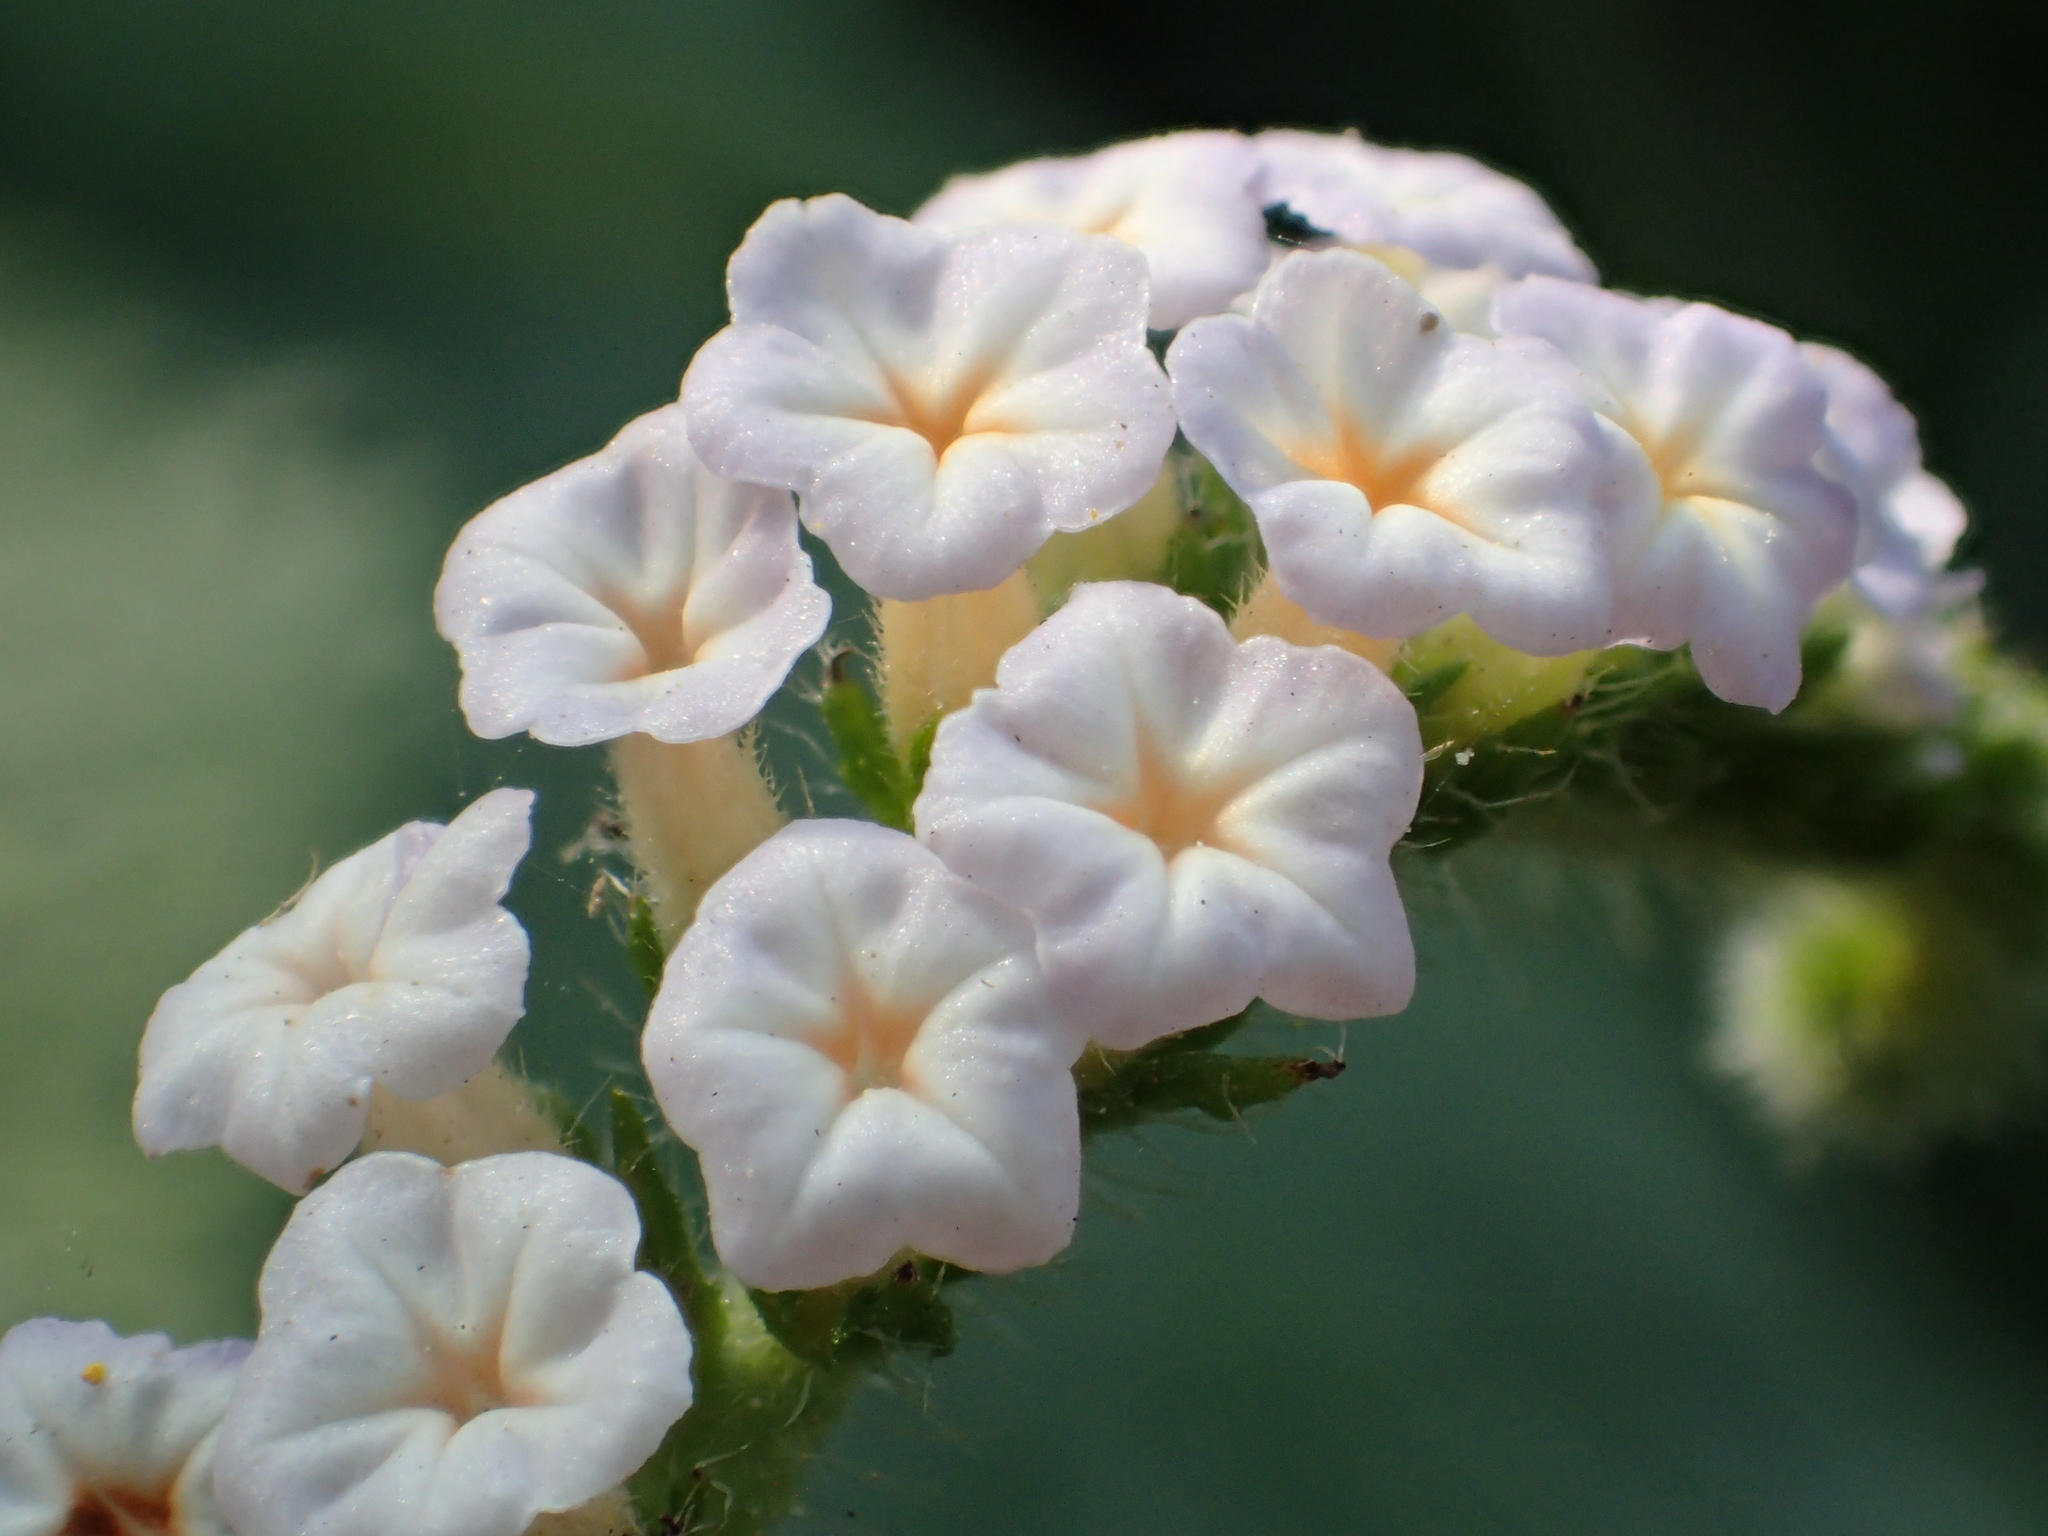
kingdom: Plantae
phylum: Tracheophyta
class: Magnoliopsida
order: Boraginales
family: Heliotropiaceae
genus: Heliotropium
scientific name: Heliotropium indicum
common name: Indian heliotrope
